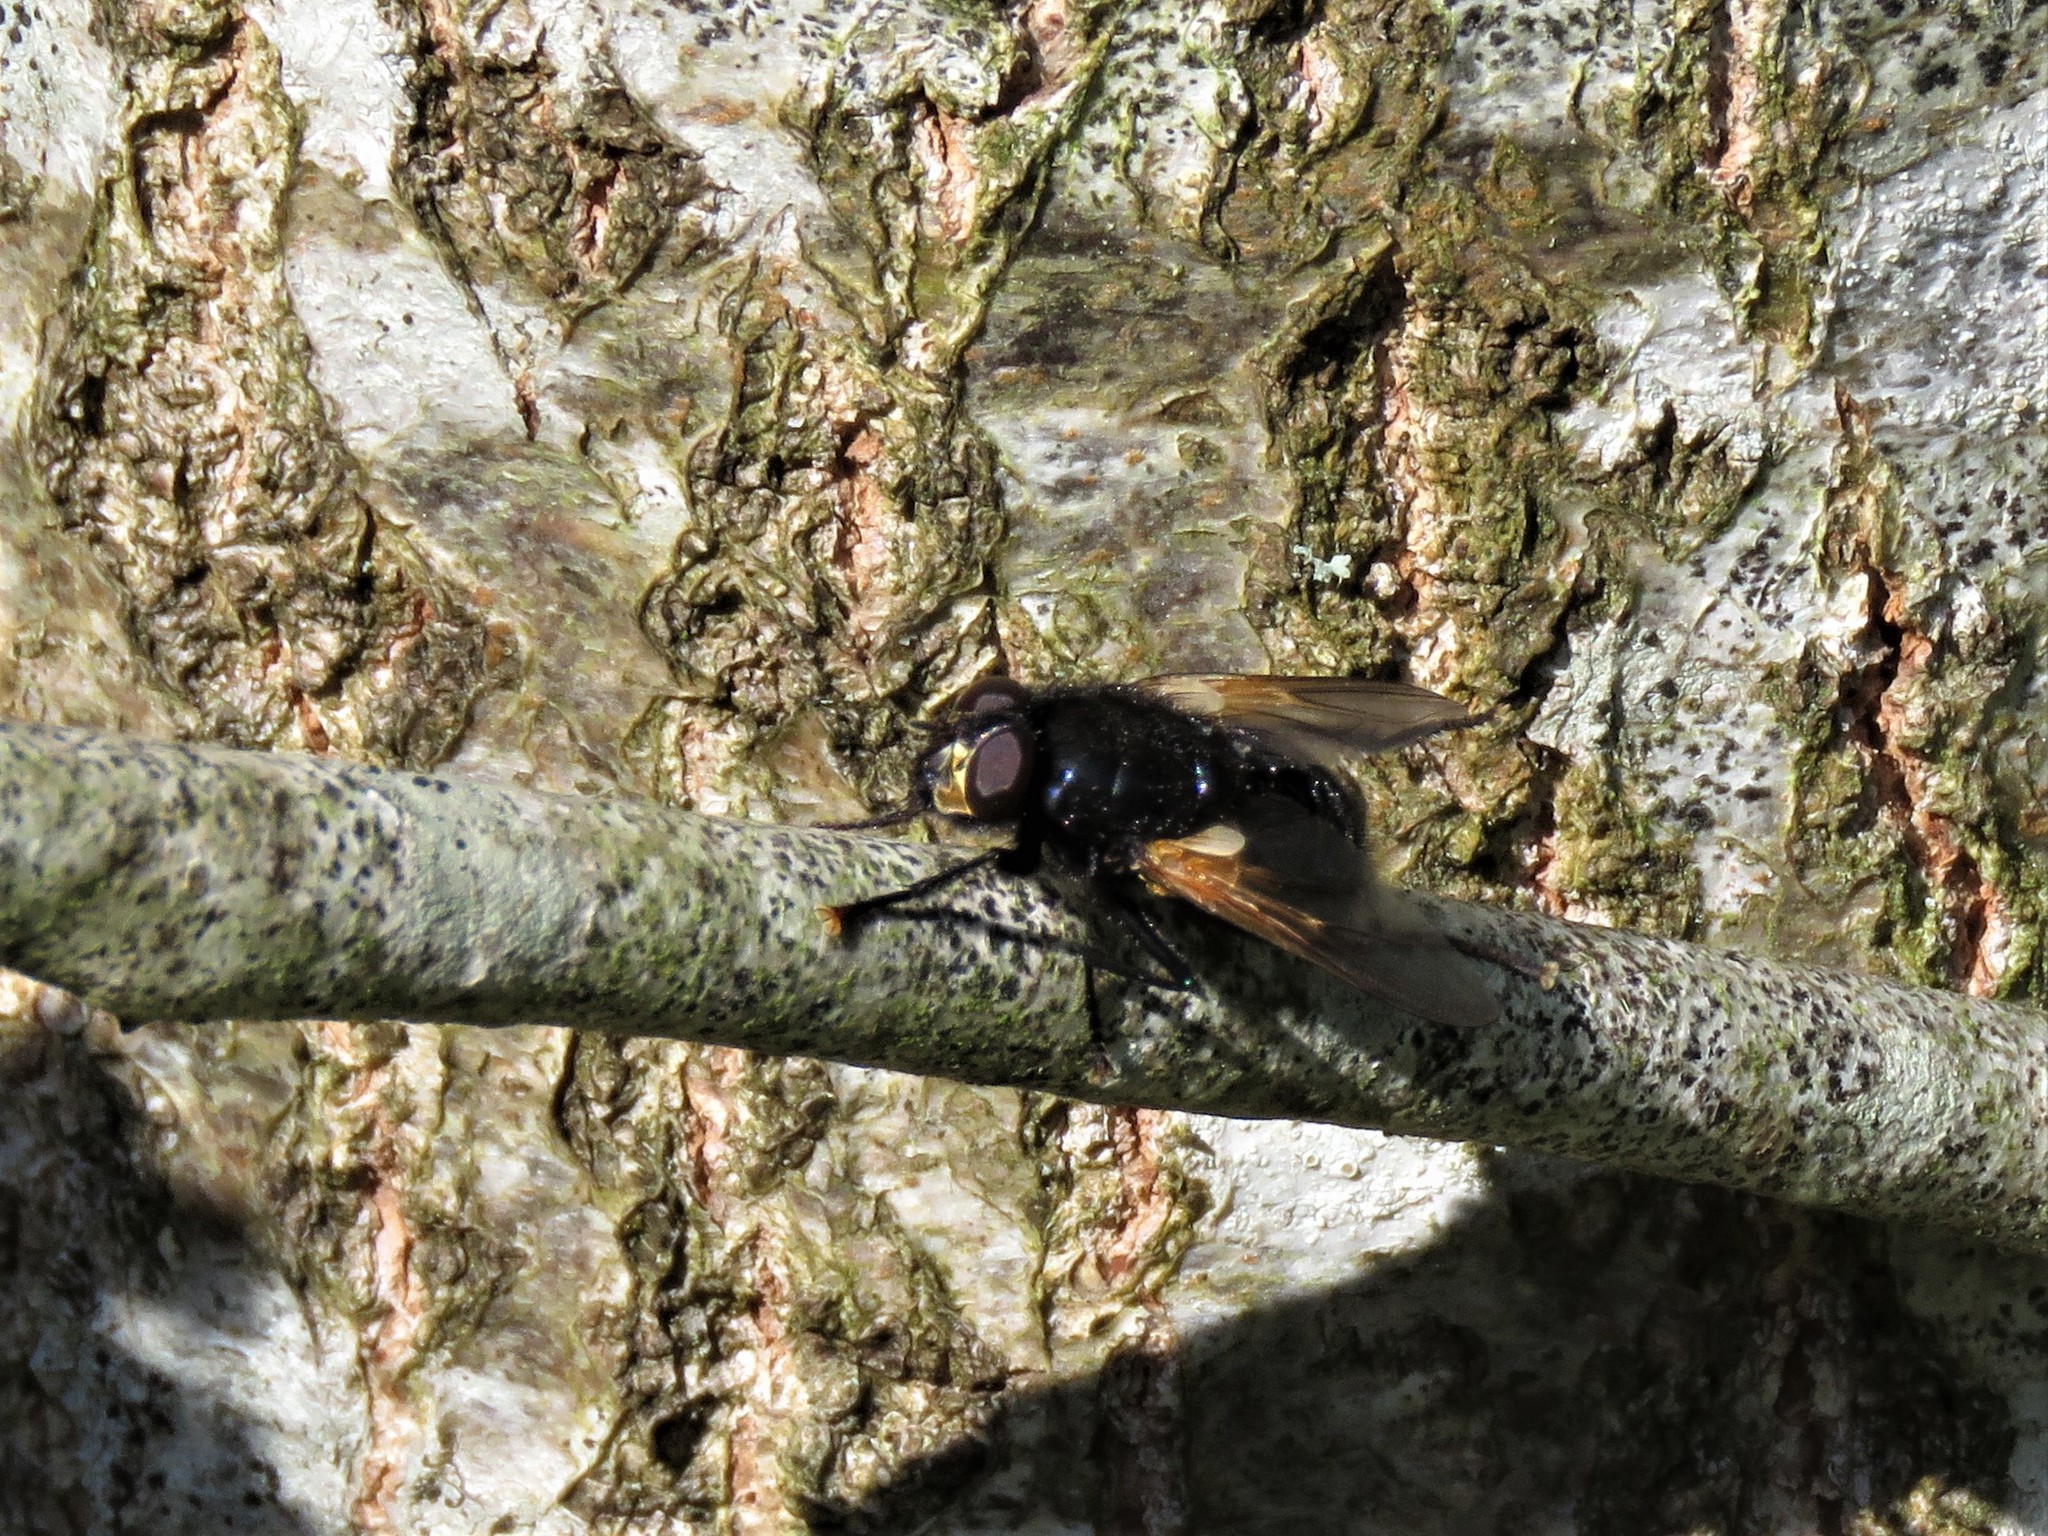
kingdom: Animalia
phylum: Arthropoda
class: Insecta
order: Diptera
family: Muscidae
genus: Mesembrina
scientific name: Mesembrina meridiana
